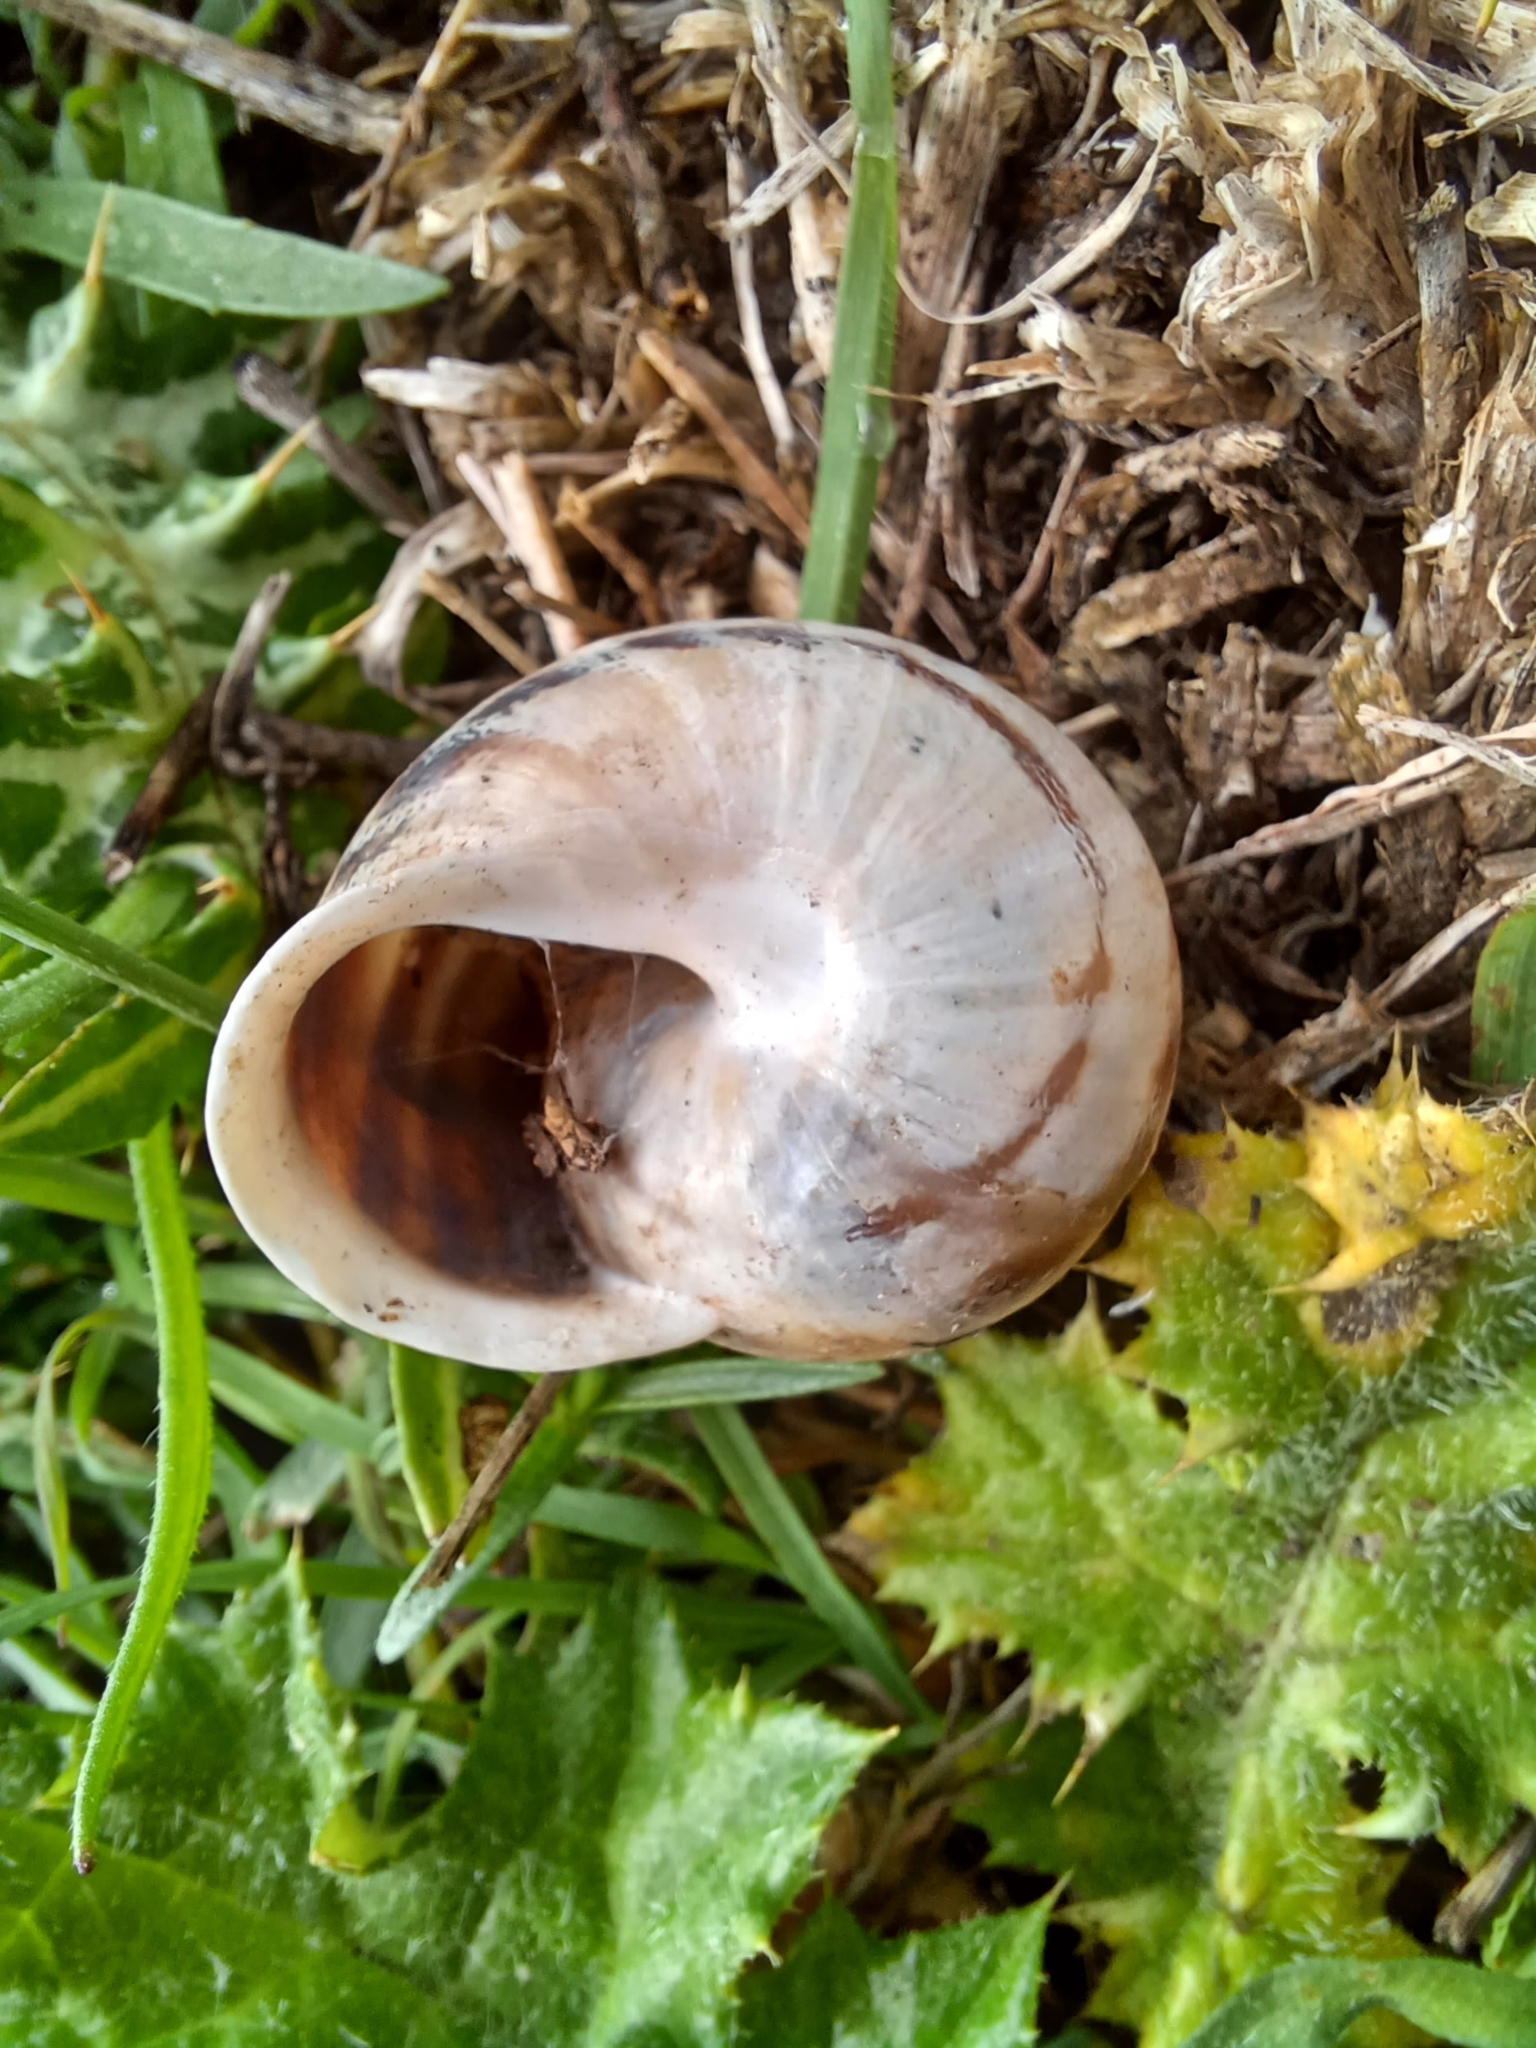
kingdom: Animalia
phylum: Mollusca
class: Gastropoda
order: Stylommatophora
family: Helicidae
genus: Eobania
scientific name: Eobania vermiculata
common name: Chocolateband snail
